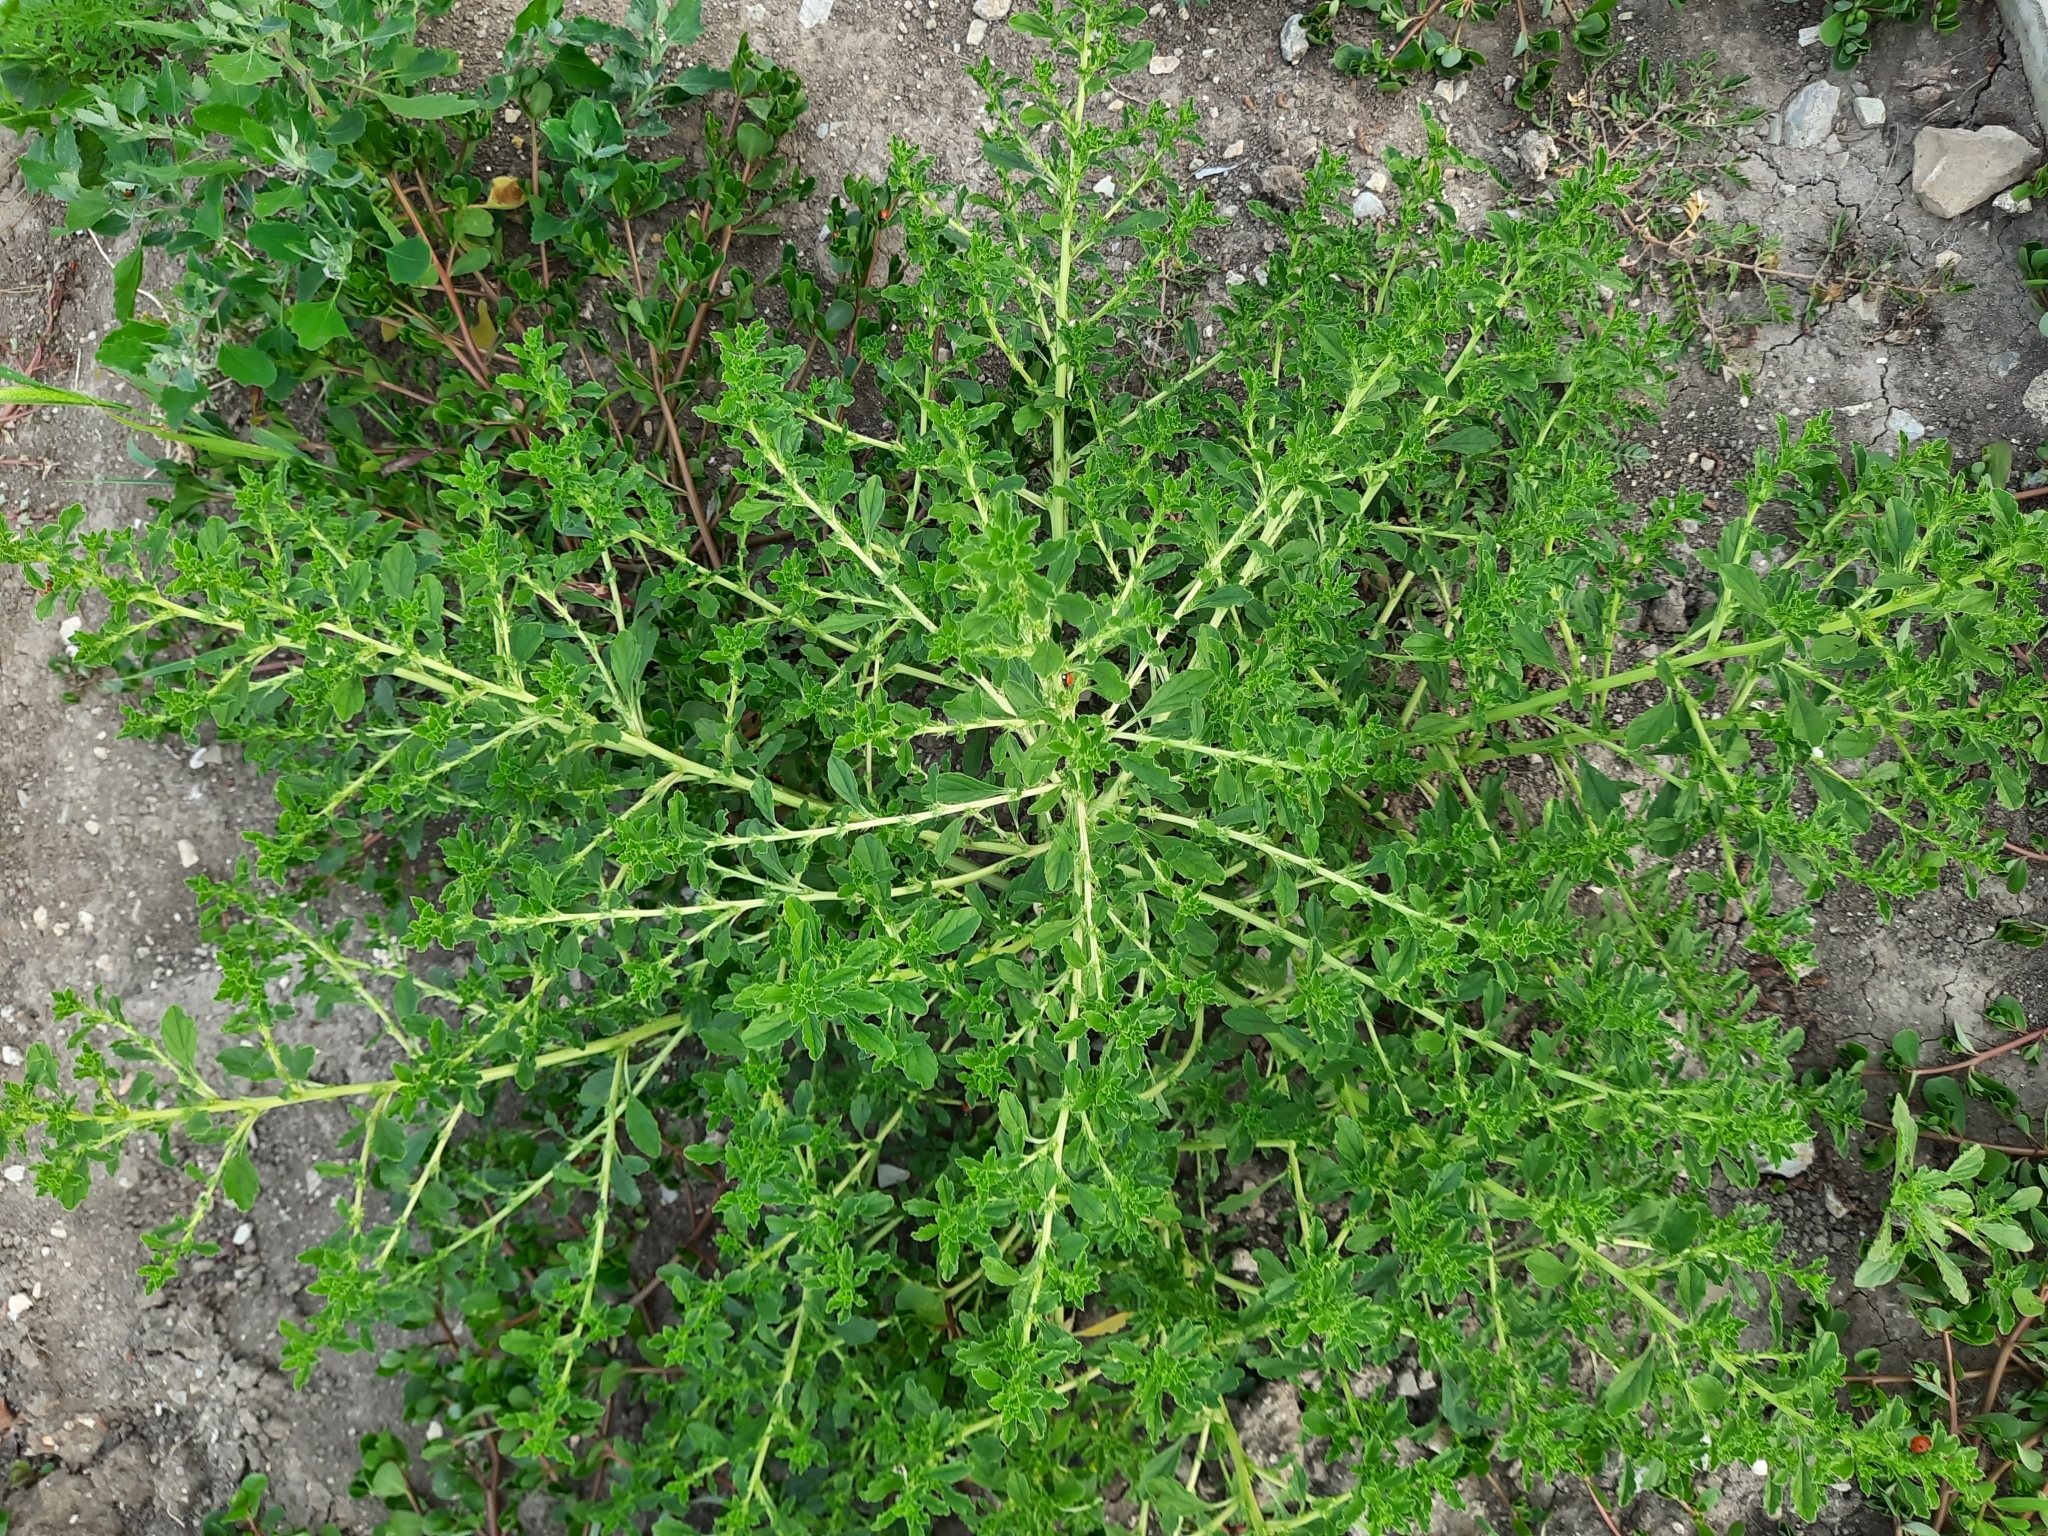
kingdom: Plantae
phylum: Tracheophyta
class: Magnoliopsida
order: Caryophyllales
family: Amaranthaceae
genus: Amaranthus
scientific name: Amaranthus albus
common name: White pigweed
